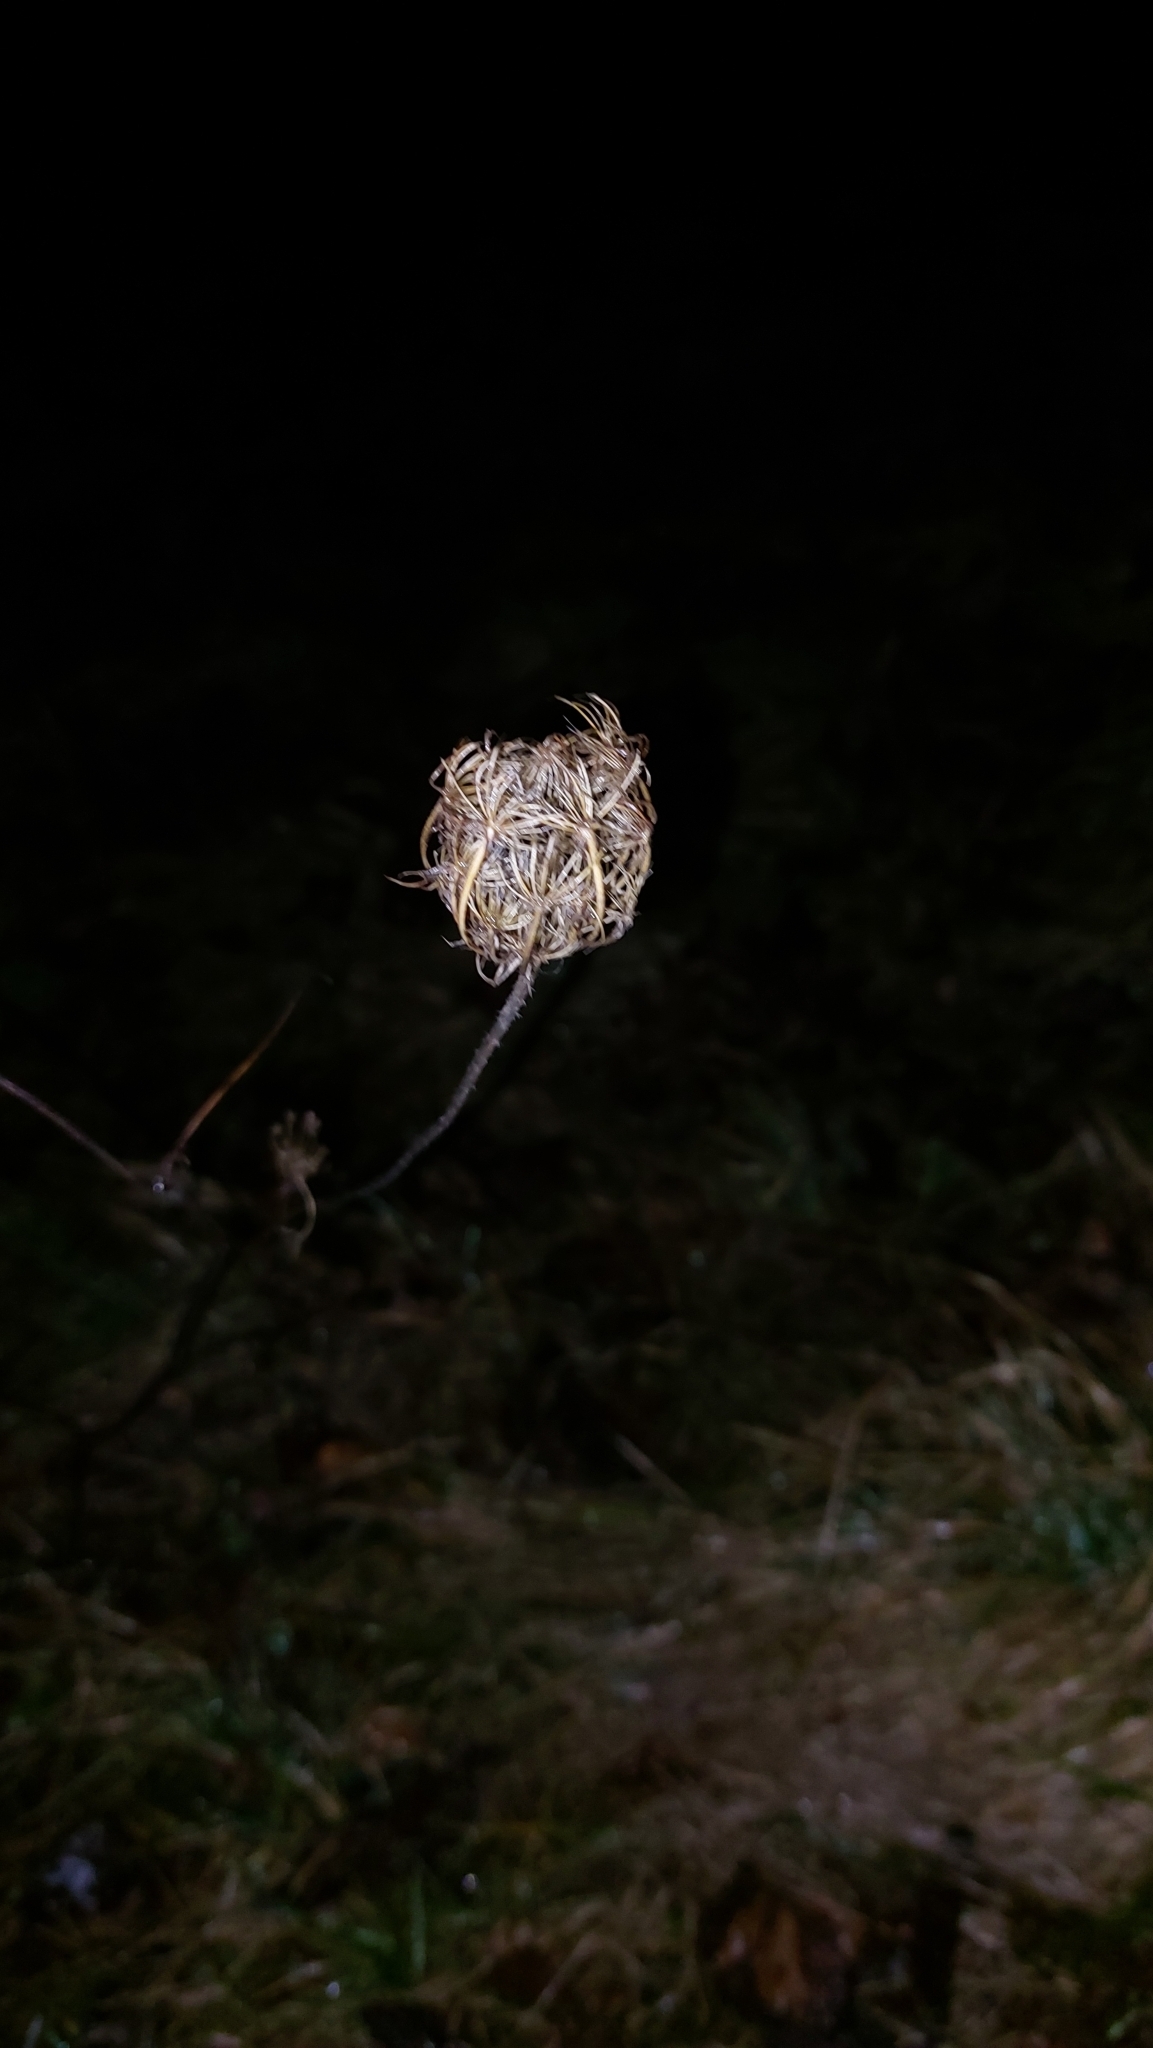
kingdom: Plantae
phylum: Tracheophyta
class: Magnoliopsida
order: Apiales
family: Apiaceae
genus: Daucus
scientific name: Daucus carota
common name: Wild carrot
